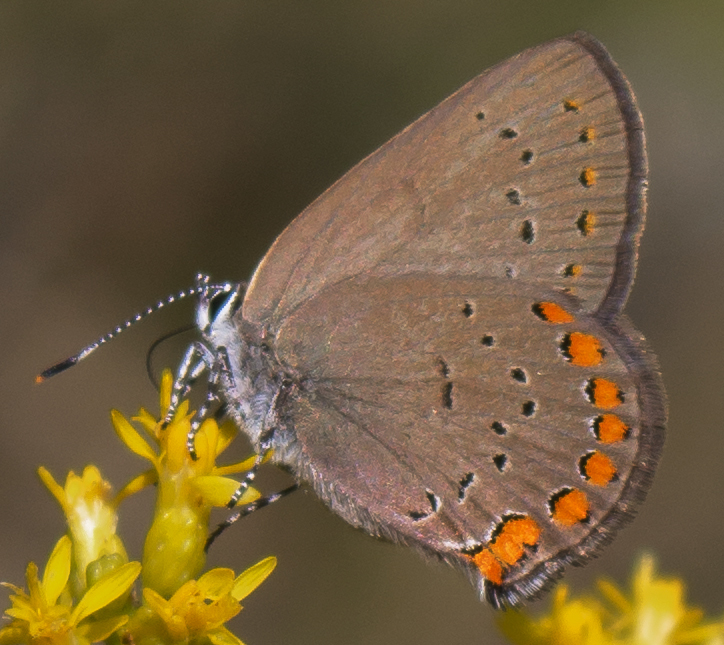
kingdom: Animalia
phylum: Arthropoda
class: Insecta
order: Lepidoptera
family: Lycaenidae
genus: Harkenclenus
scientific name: Harkenclenus titus
